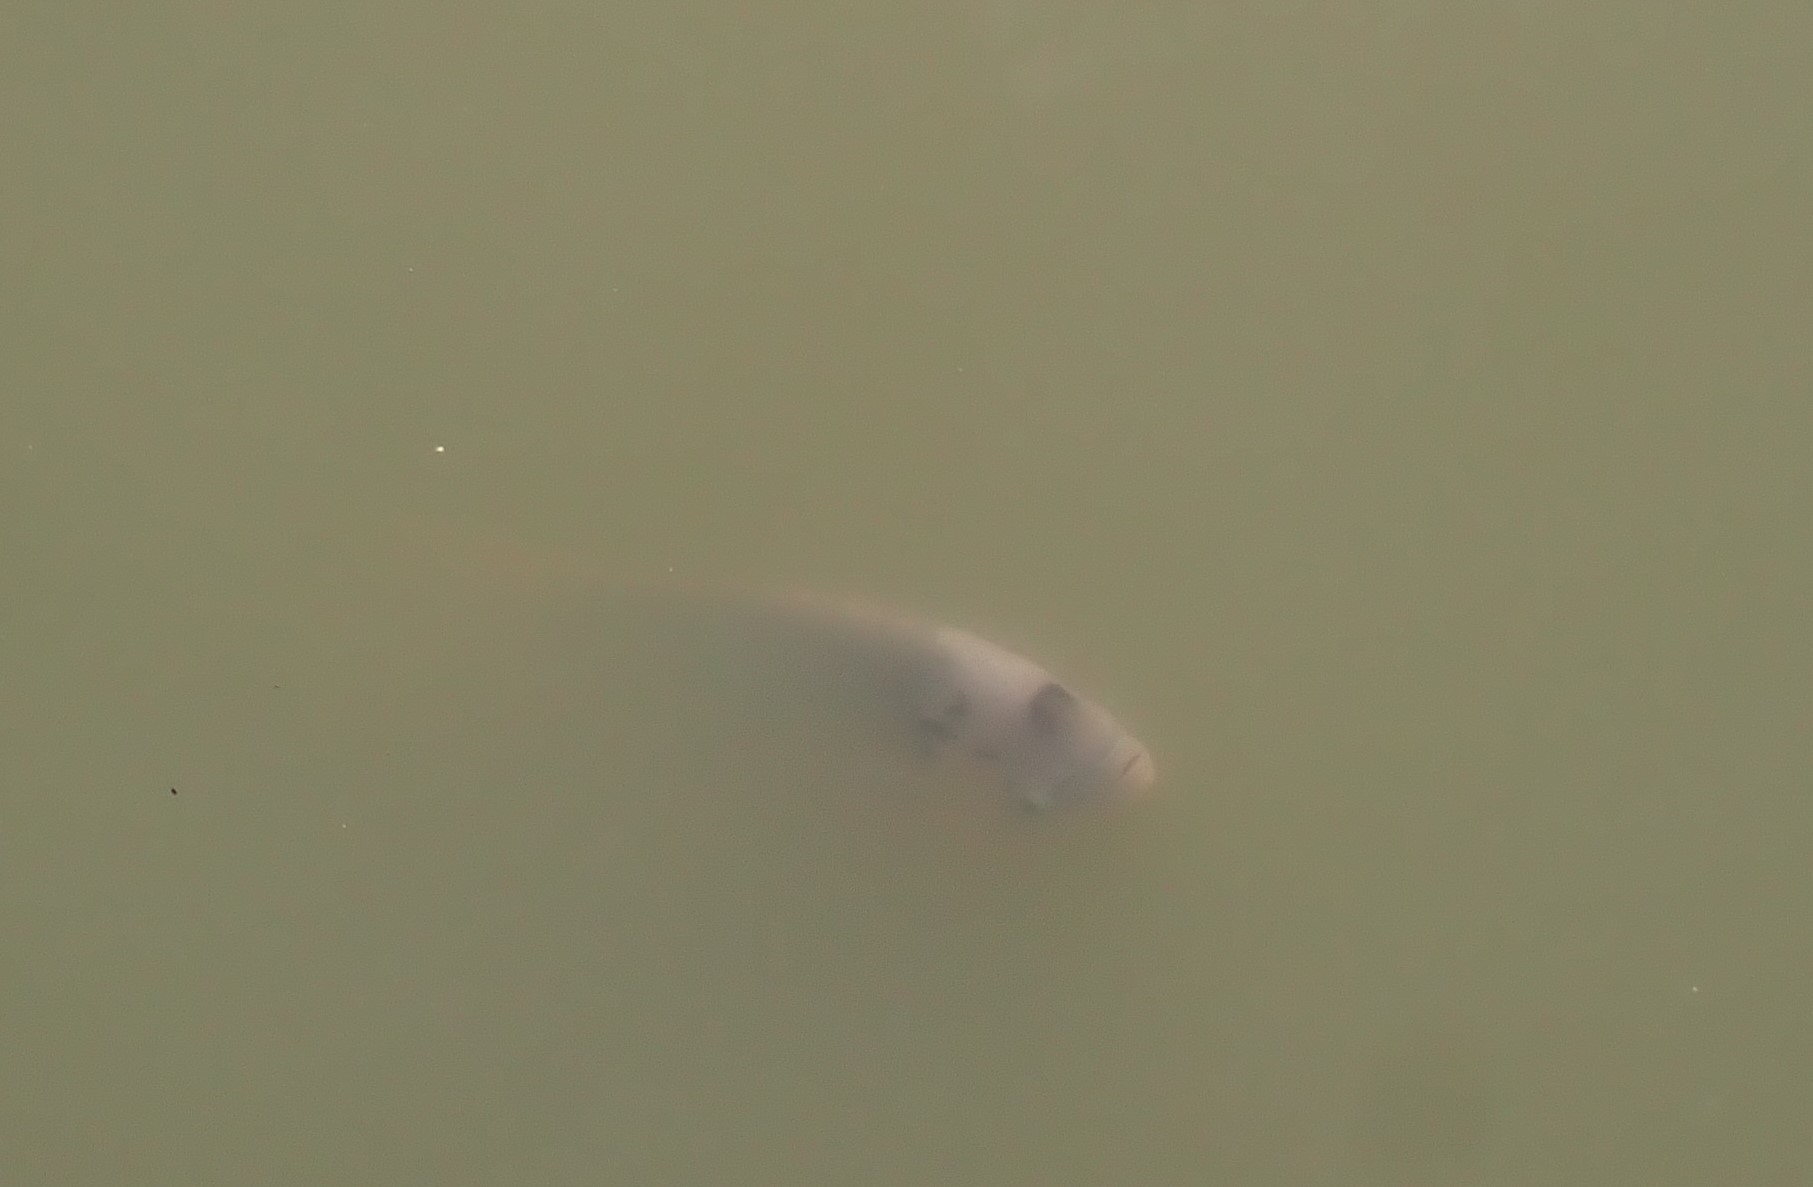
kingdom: Animalia
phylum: Chordata
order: Perciformes
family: Osphronemidae
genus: Osphronemus
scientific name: Osphronemus goramy
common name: Giant gourami
